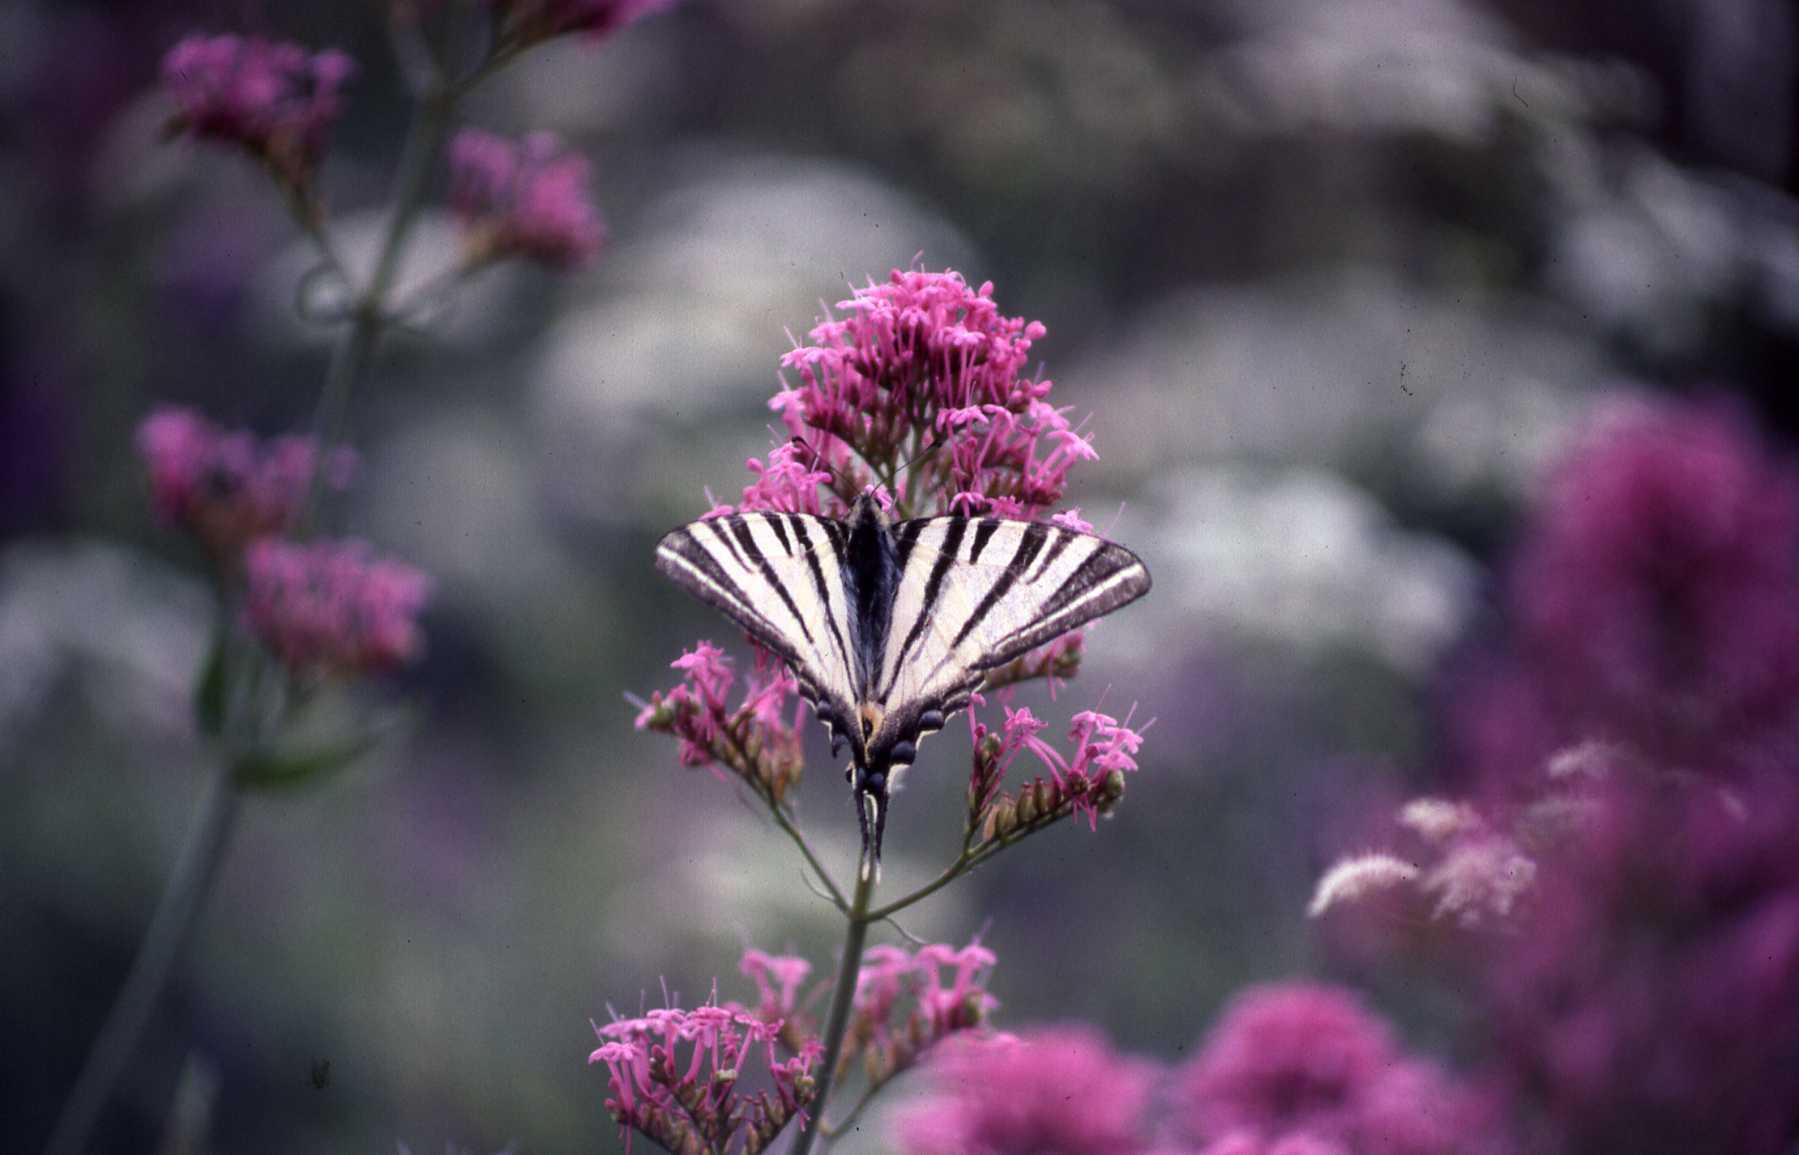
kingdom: Animalia
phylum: Arthropoda
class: Insecta
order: Lepidoptera
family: Papilionidae
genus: Iphiclides
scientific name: Iphiclides podalirius
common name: Scarce swallowtail
